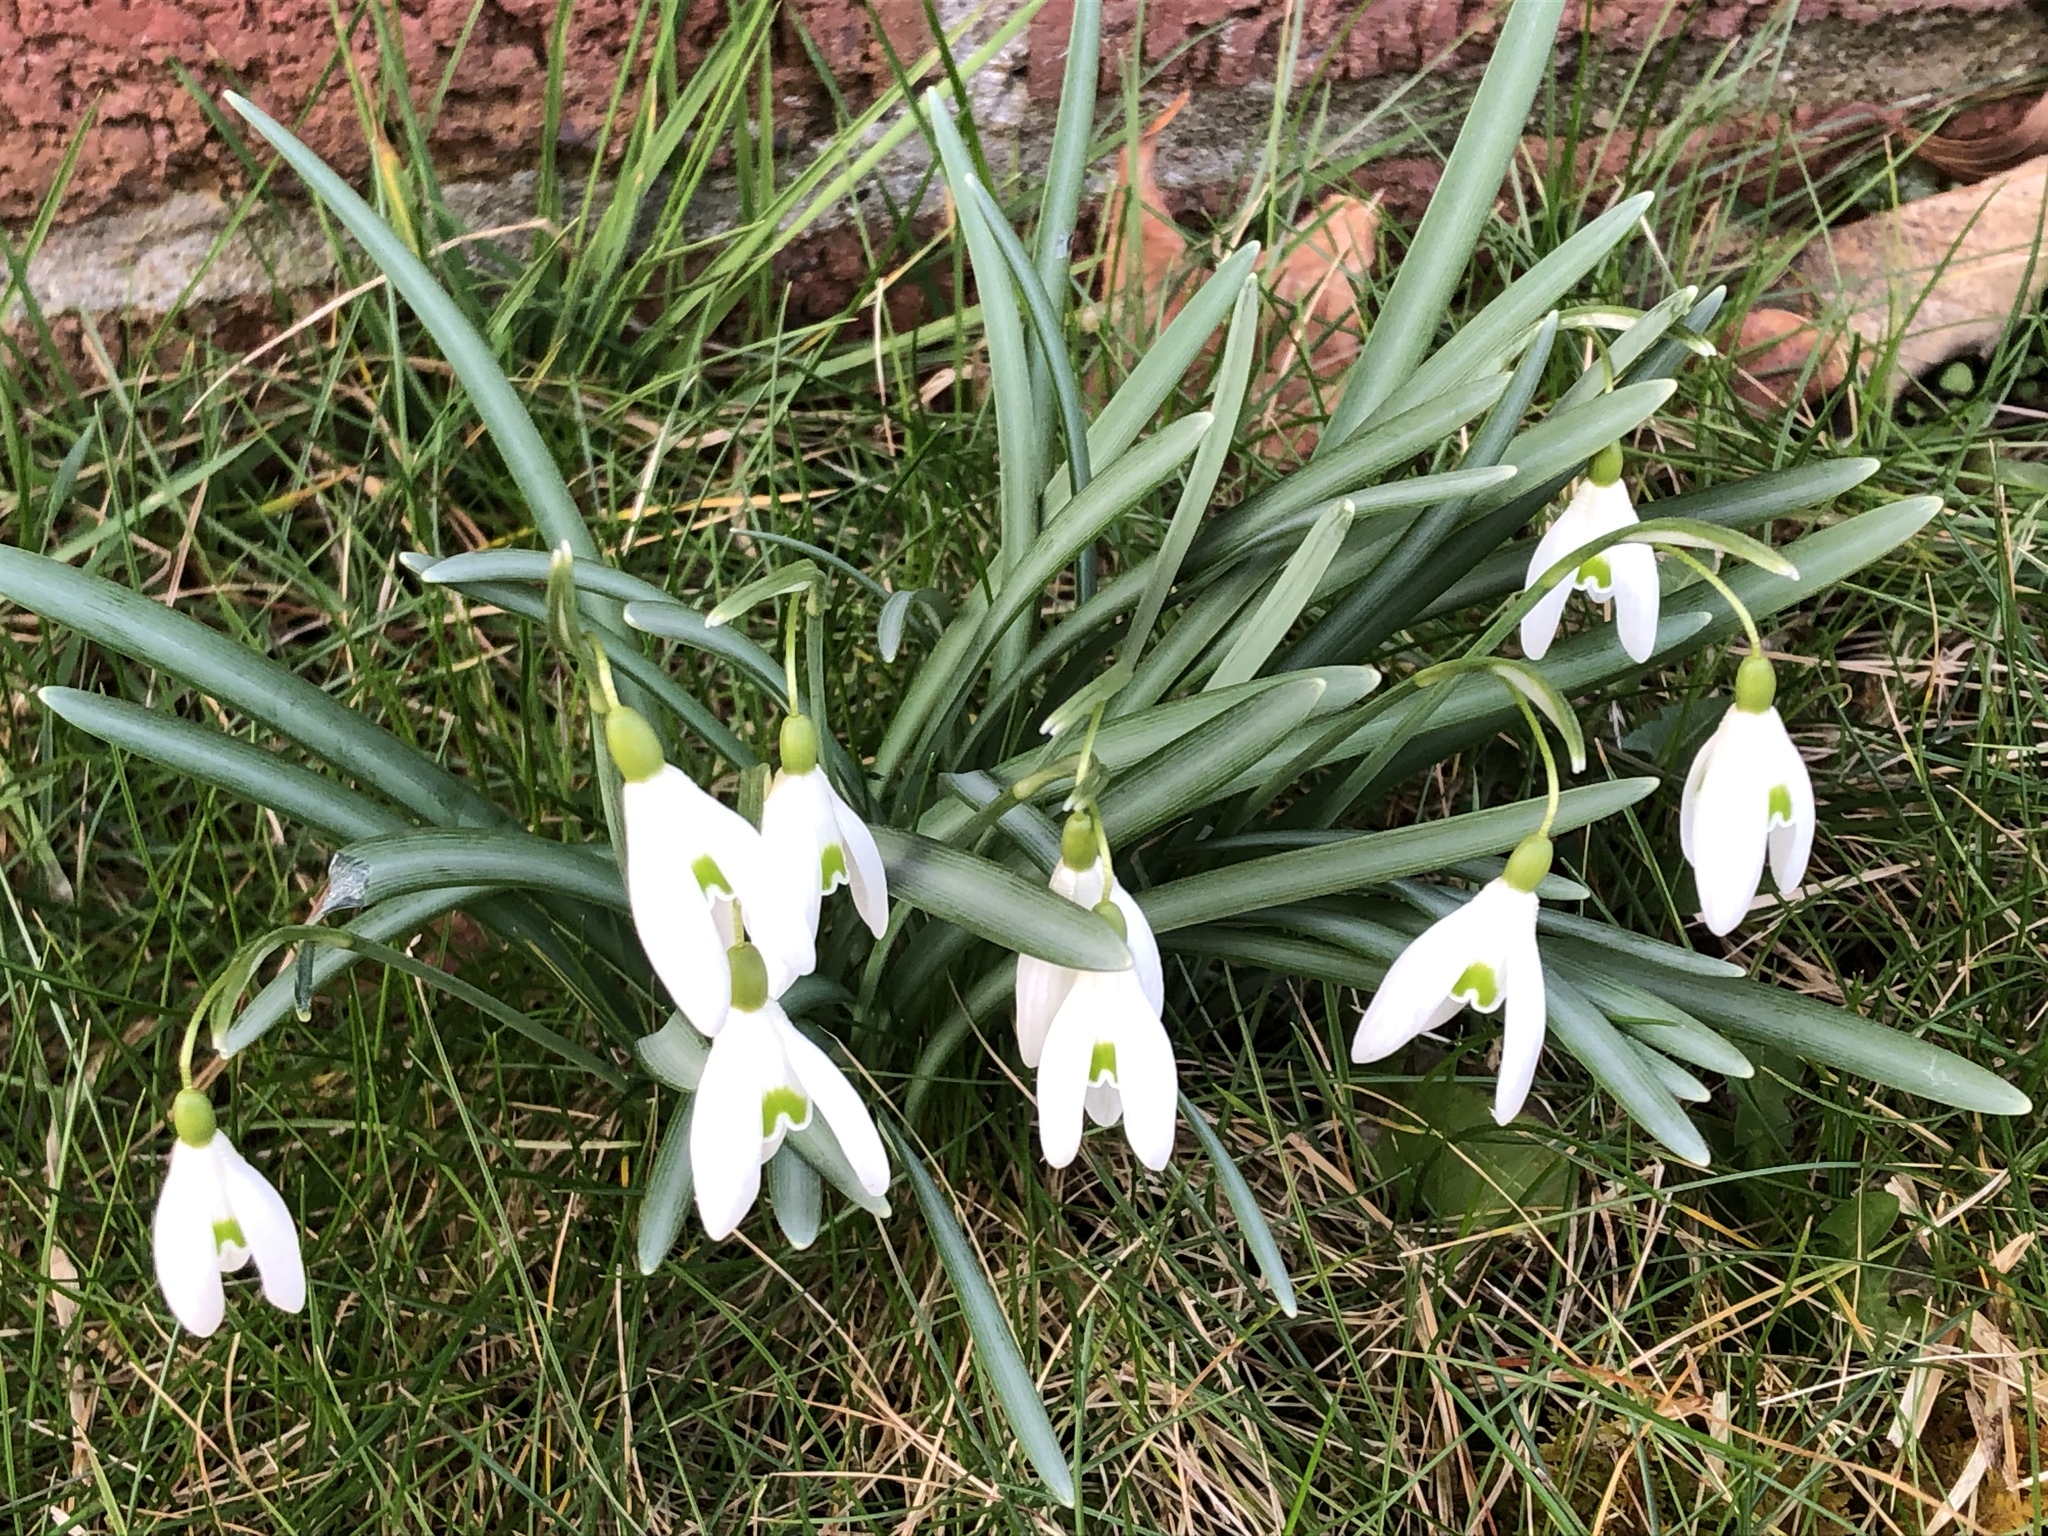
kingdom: Plantae
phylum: Tracheophyta
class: Liliopsida
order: Asparagales
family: Amaryllidaceae
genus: Galanthus
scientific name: Galanthus nivalis
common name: Snowdrop
